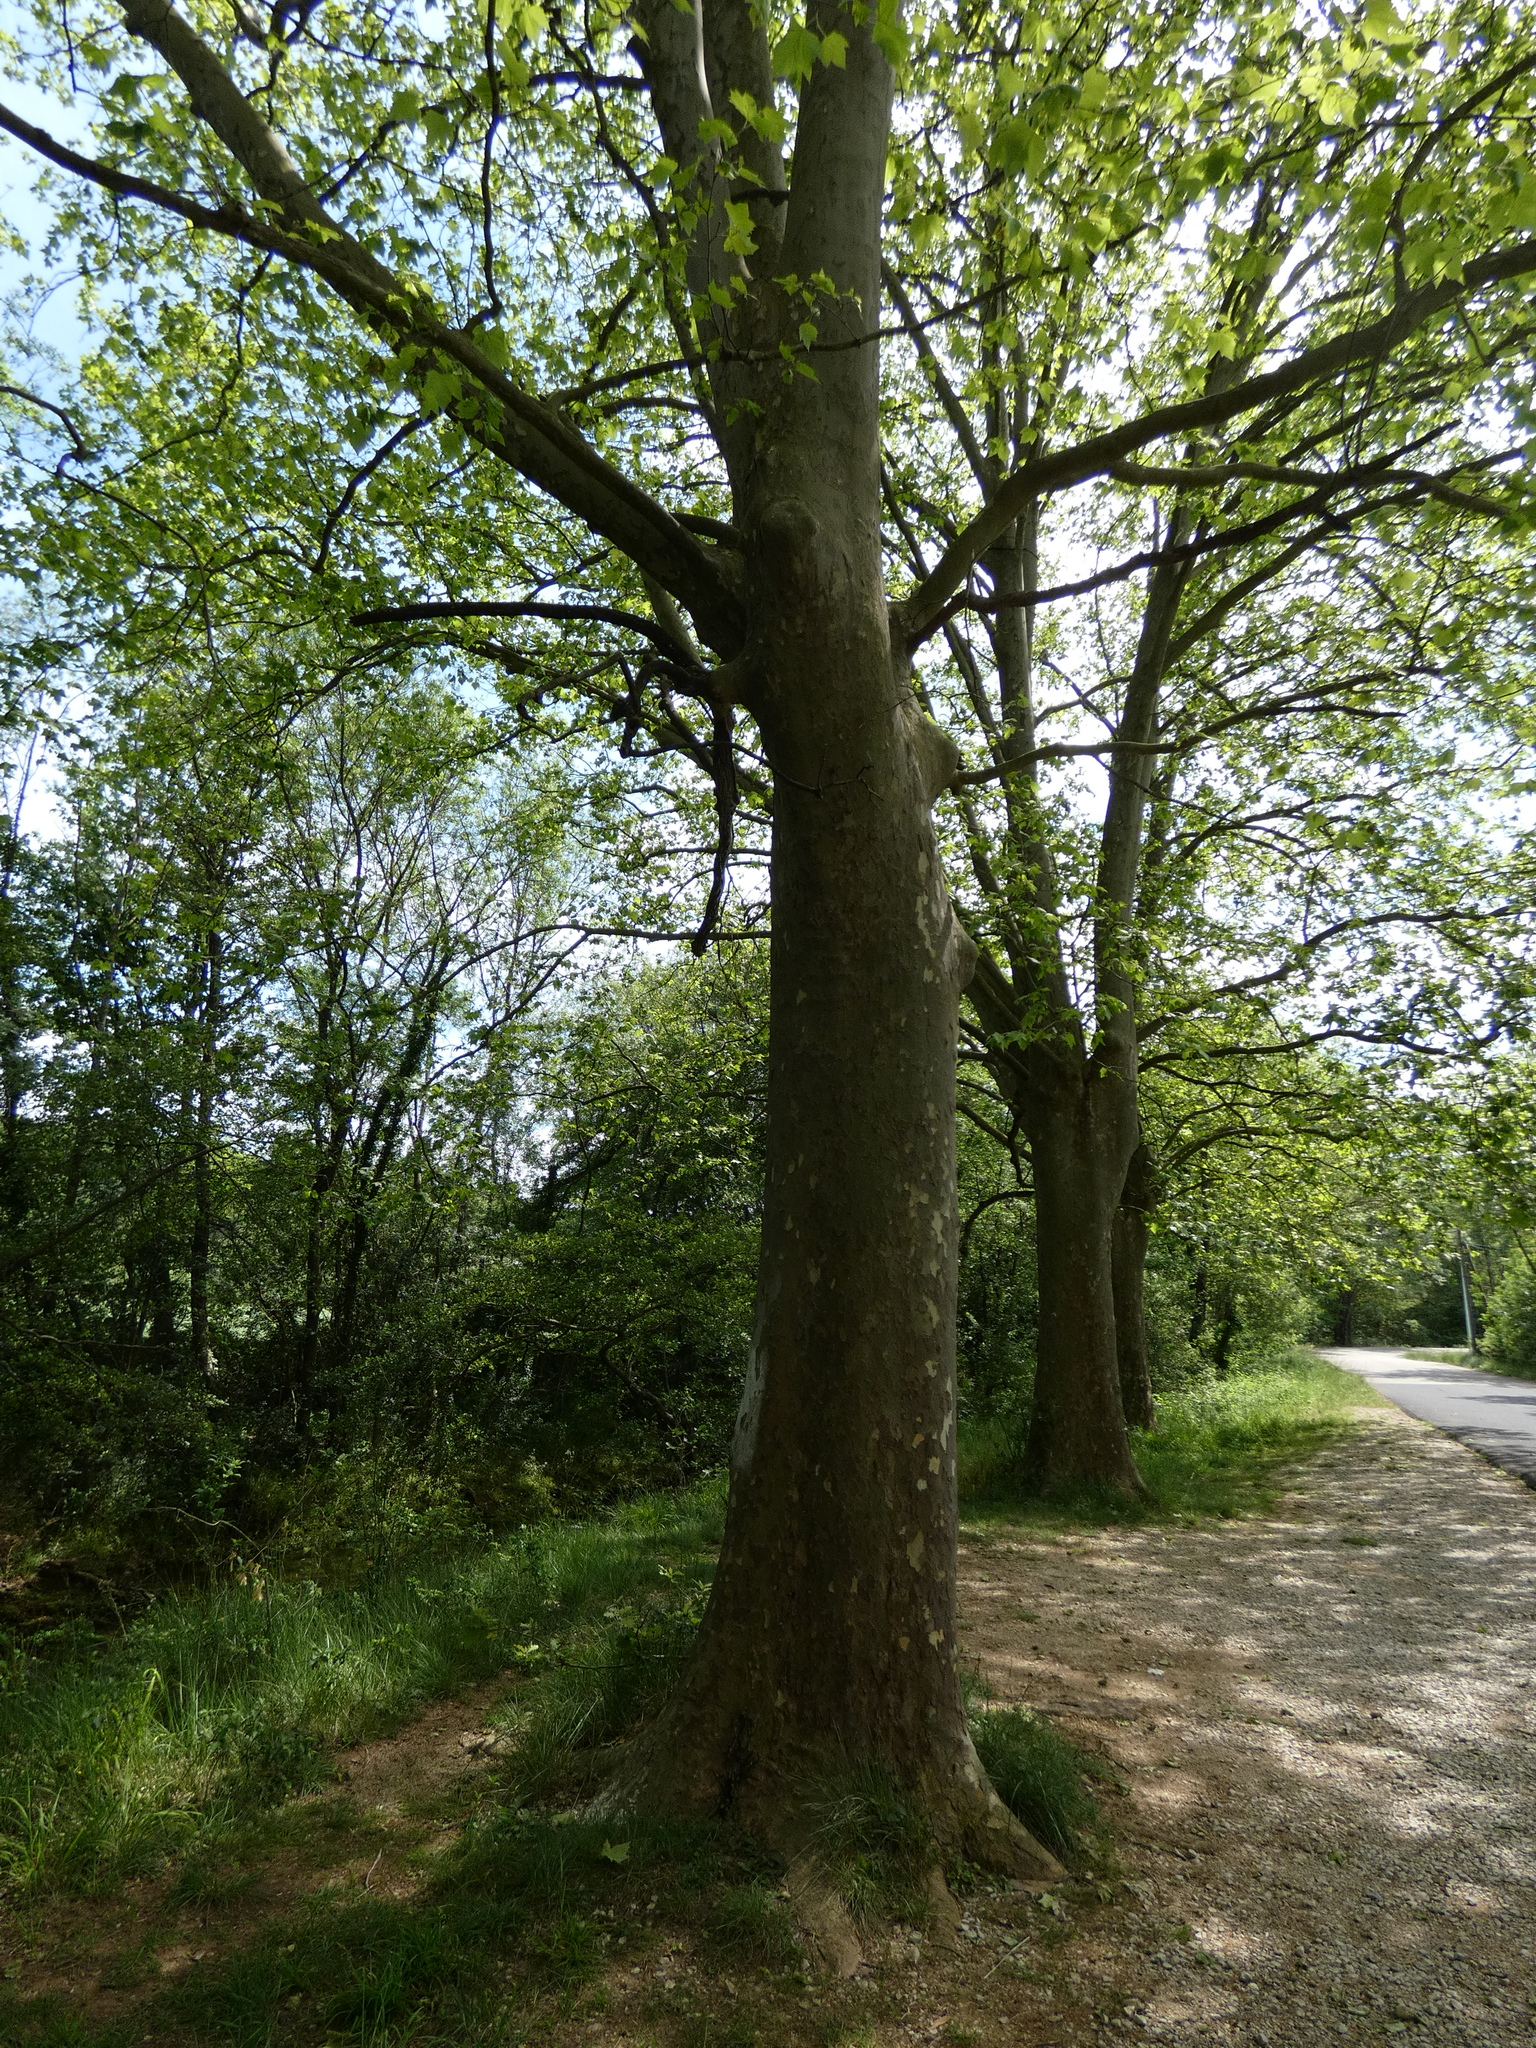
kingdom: Plantae
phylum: Tracheophyta
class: Magnoliopsida
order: Proteales
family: Platanaceae
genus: Platanus
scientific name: Platanus hispanica
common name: London plane
